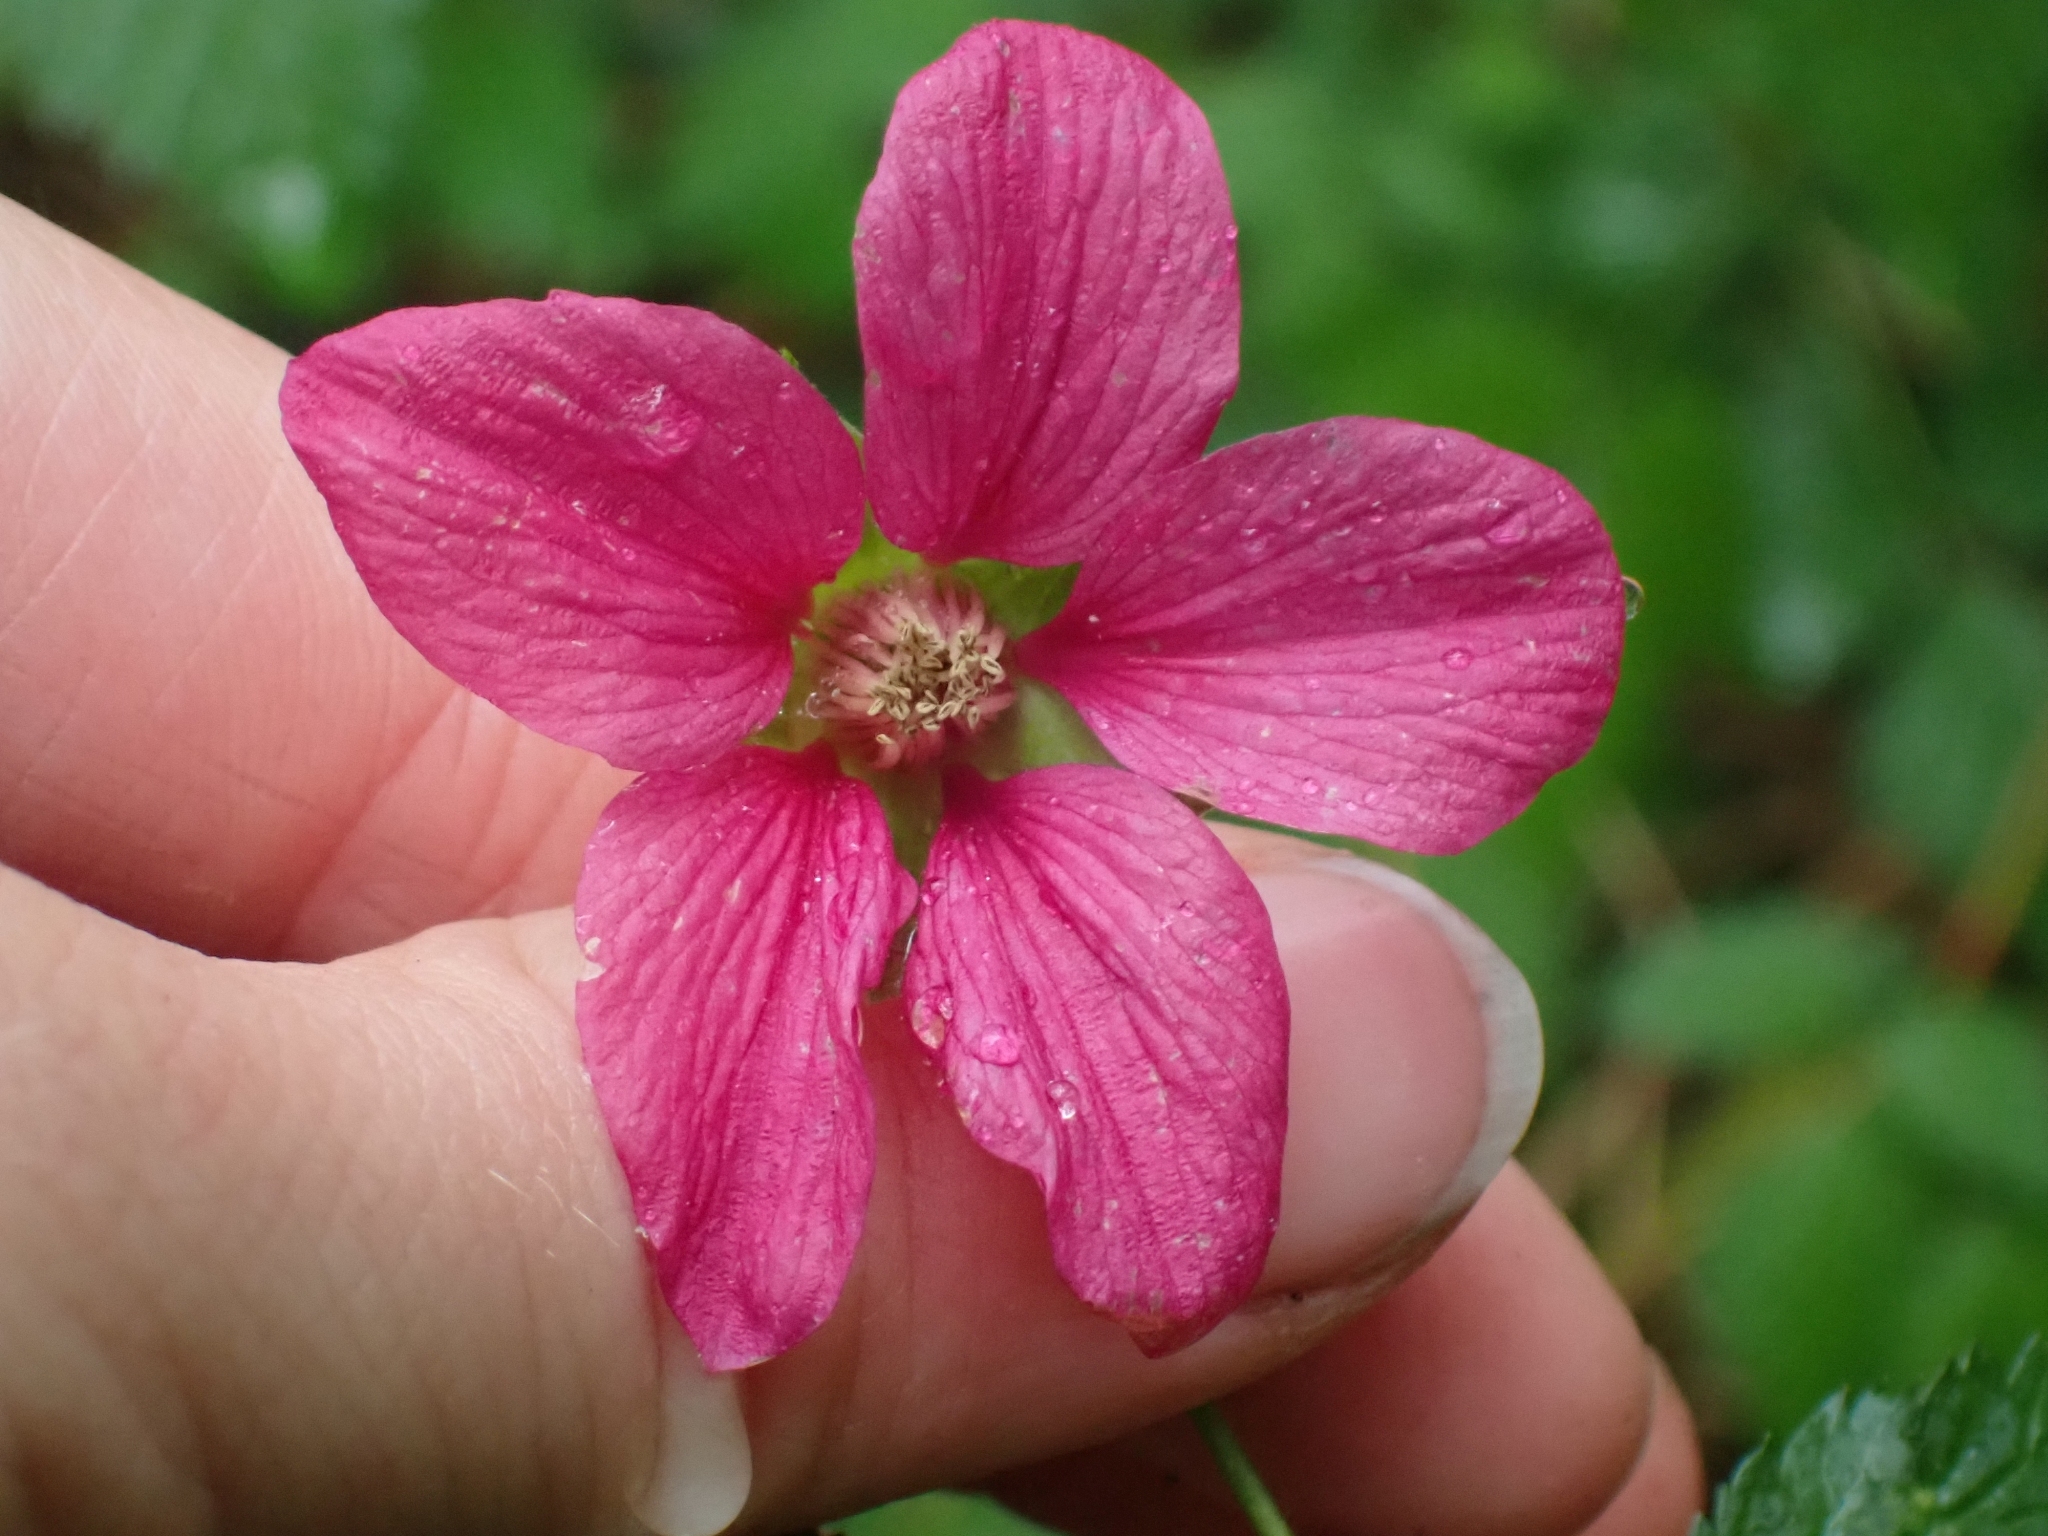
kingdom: Plantae
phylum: Tracheophyta
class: Magnoliopsida
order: Rosales
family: Rosaceae
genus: Rubus
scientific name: Rubus spectabilis
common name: Salmonberry
